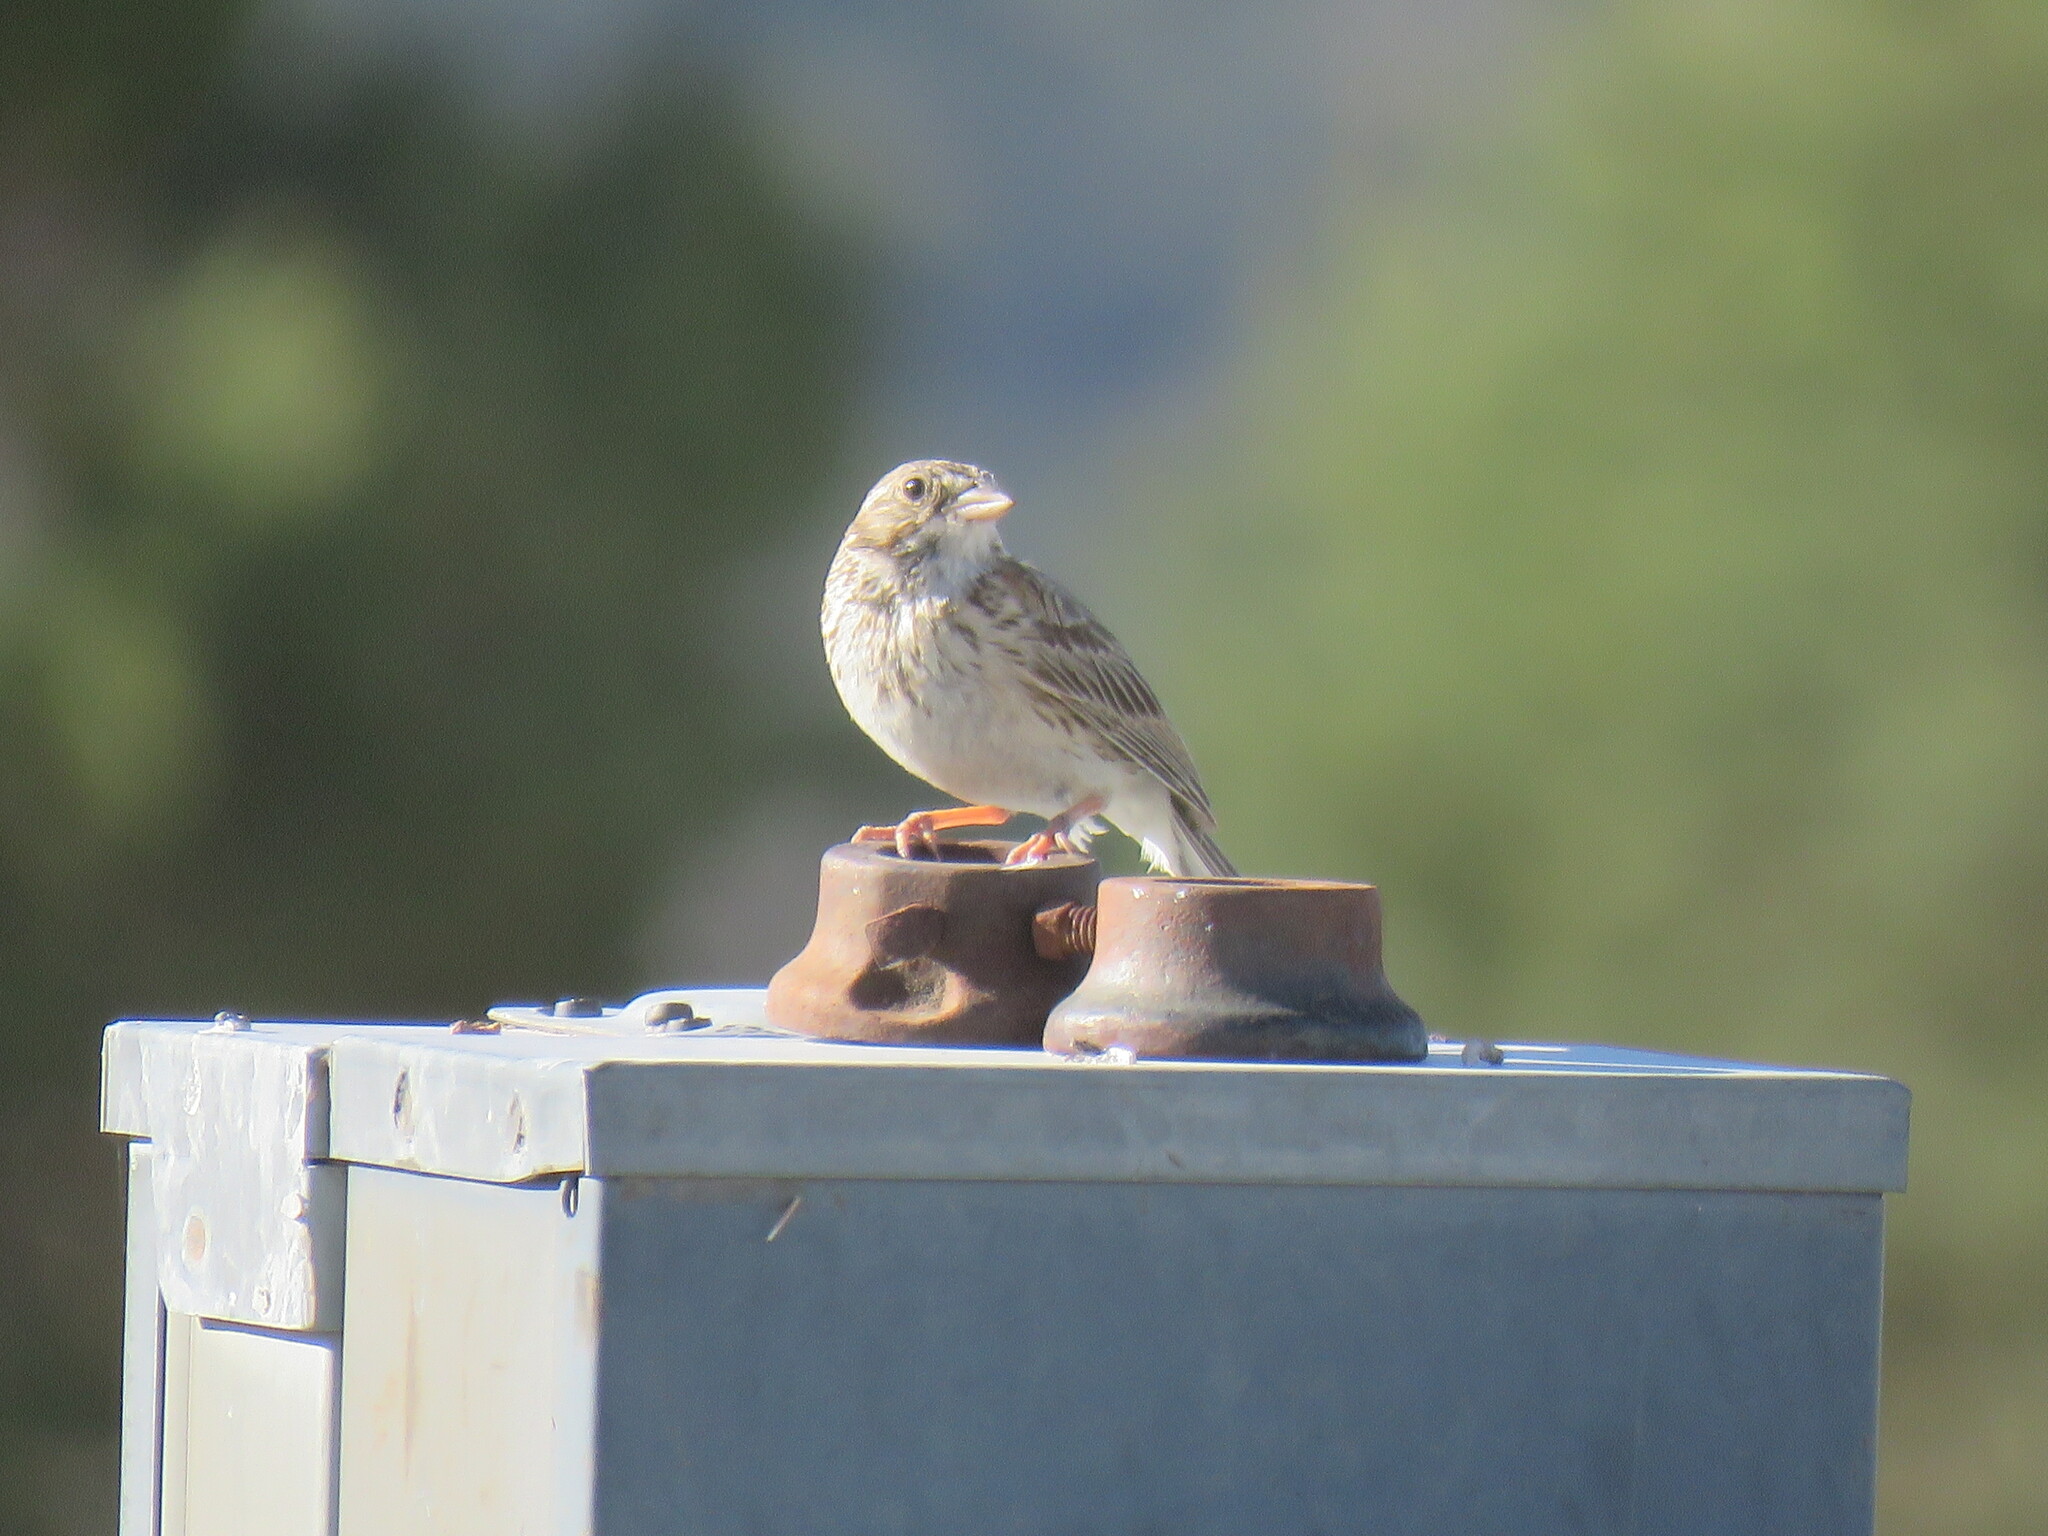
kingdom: Animalia
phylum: Chordata
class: Aves
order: Passeriformes
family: Passerellidae
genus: Pooecetes
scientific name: Pooecetes gramineus
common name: Vesper sparrow
